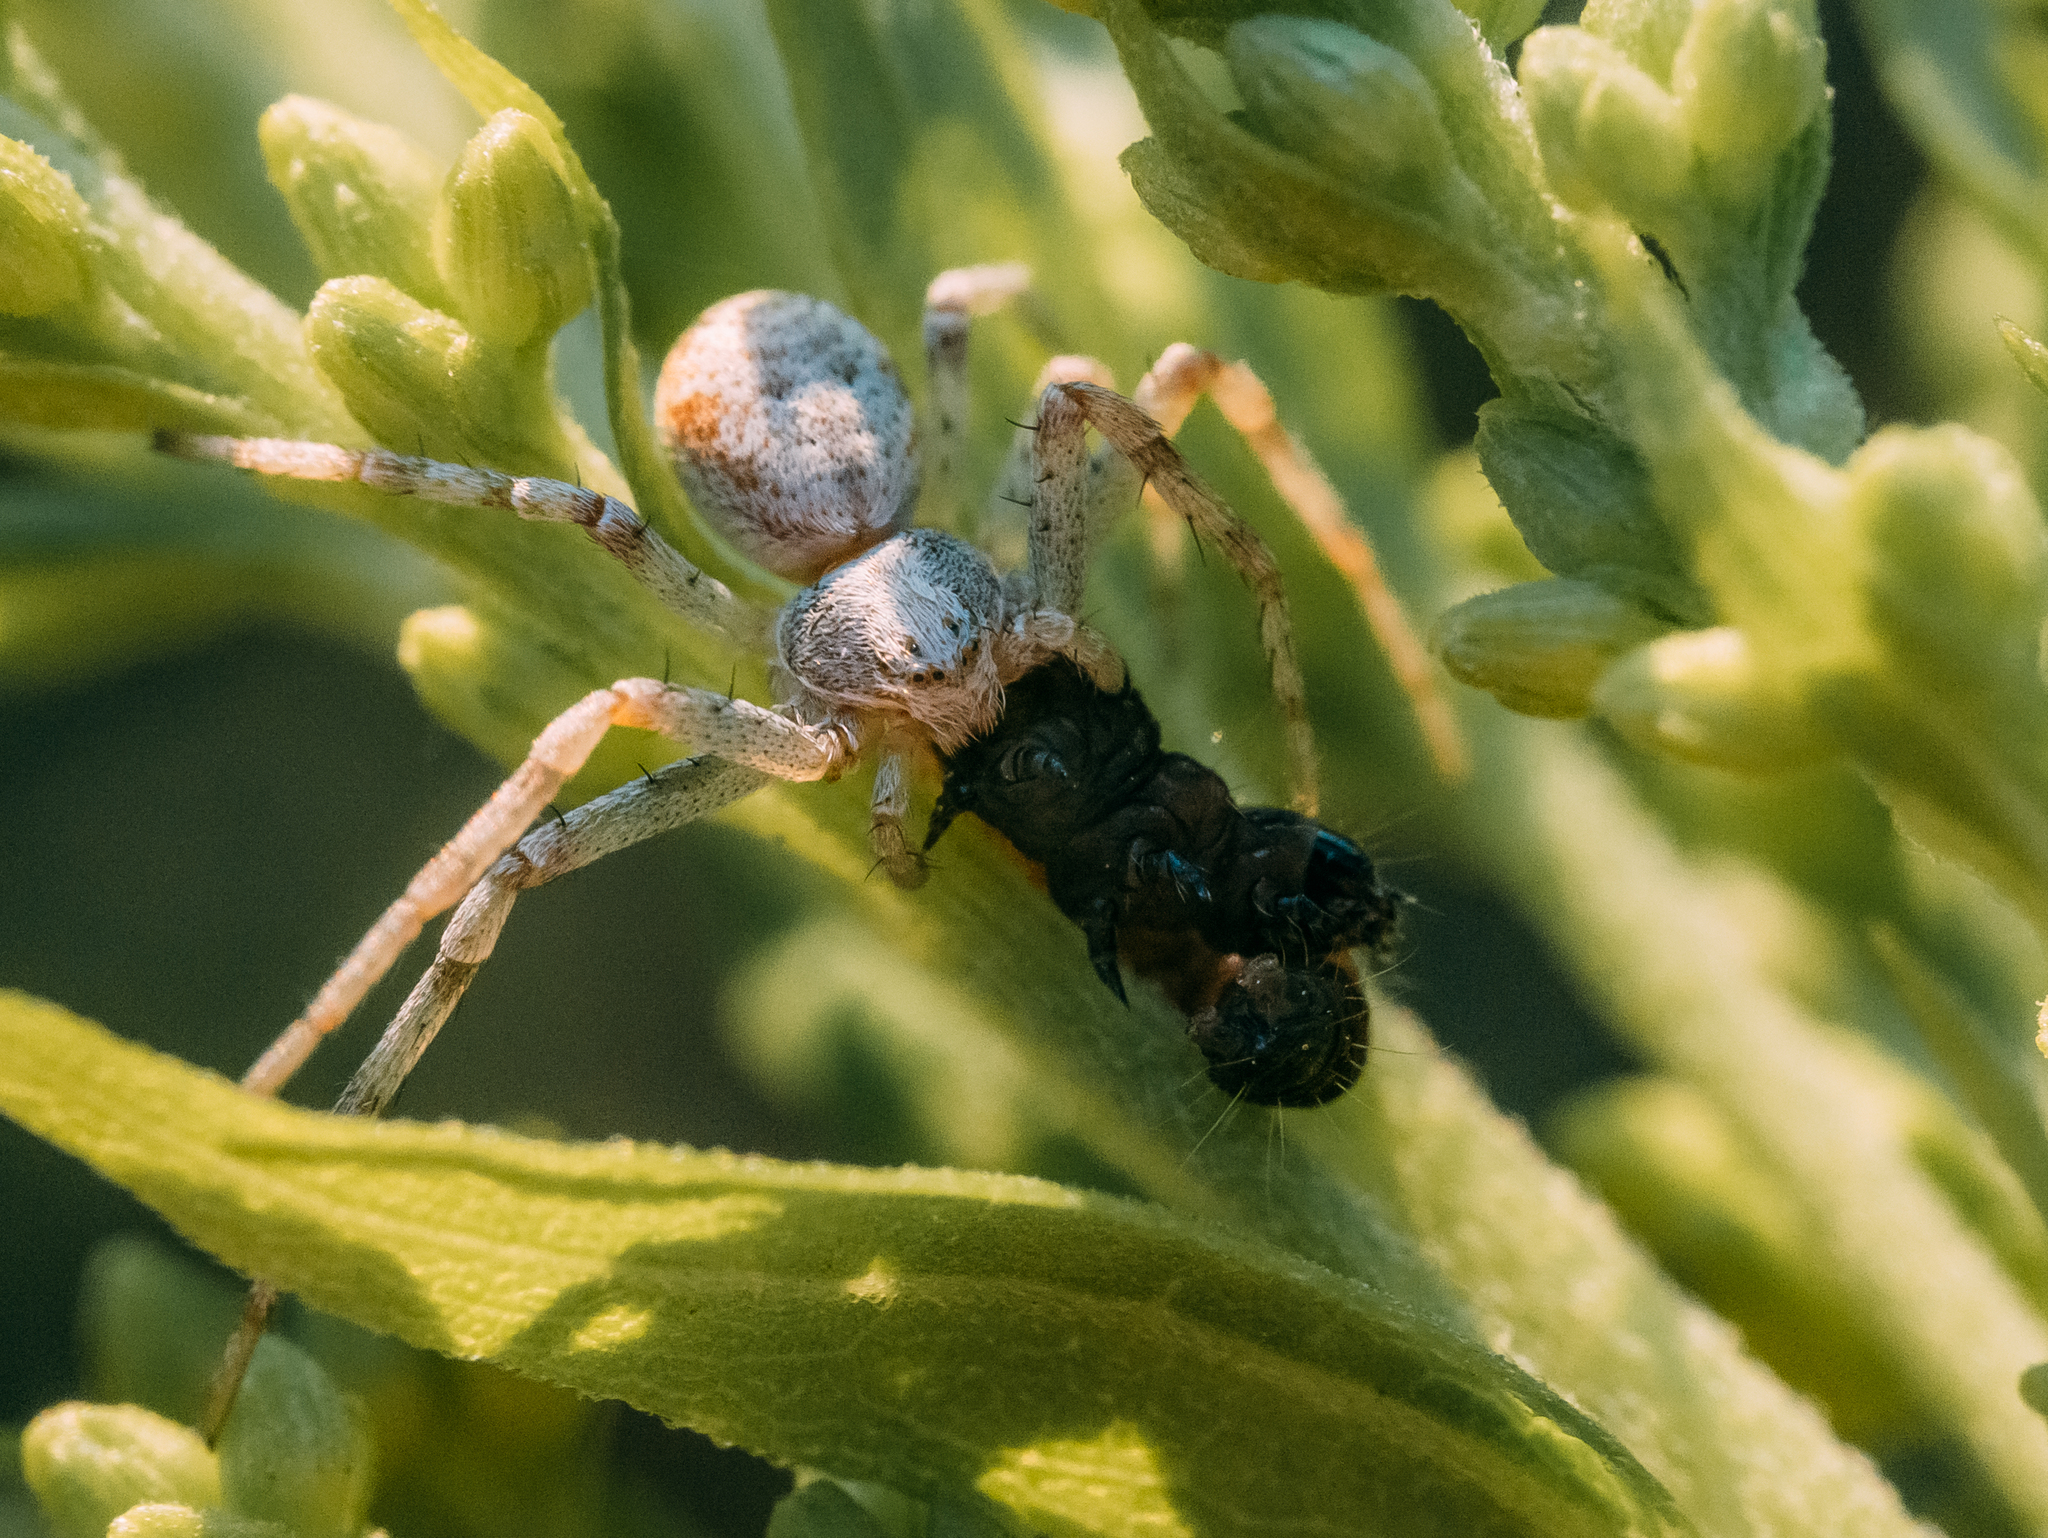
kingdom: Animalia
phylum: Arthropoda
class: Arachnida
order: Araneae
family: Philodromidae
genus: Philodromus
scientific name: Philodromus cespitum
